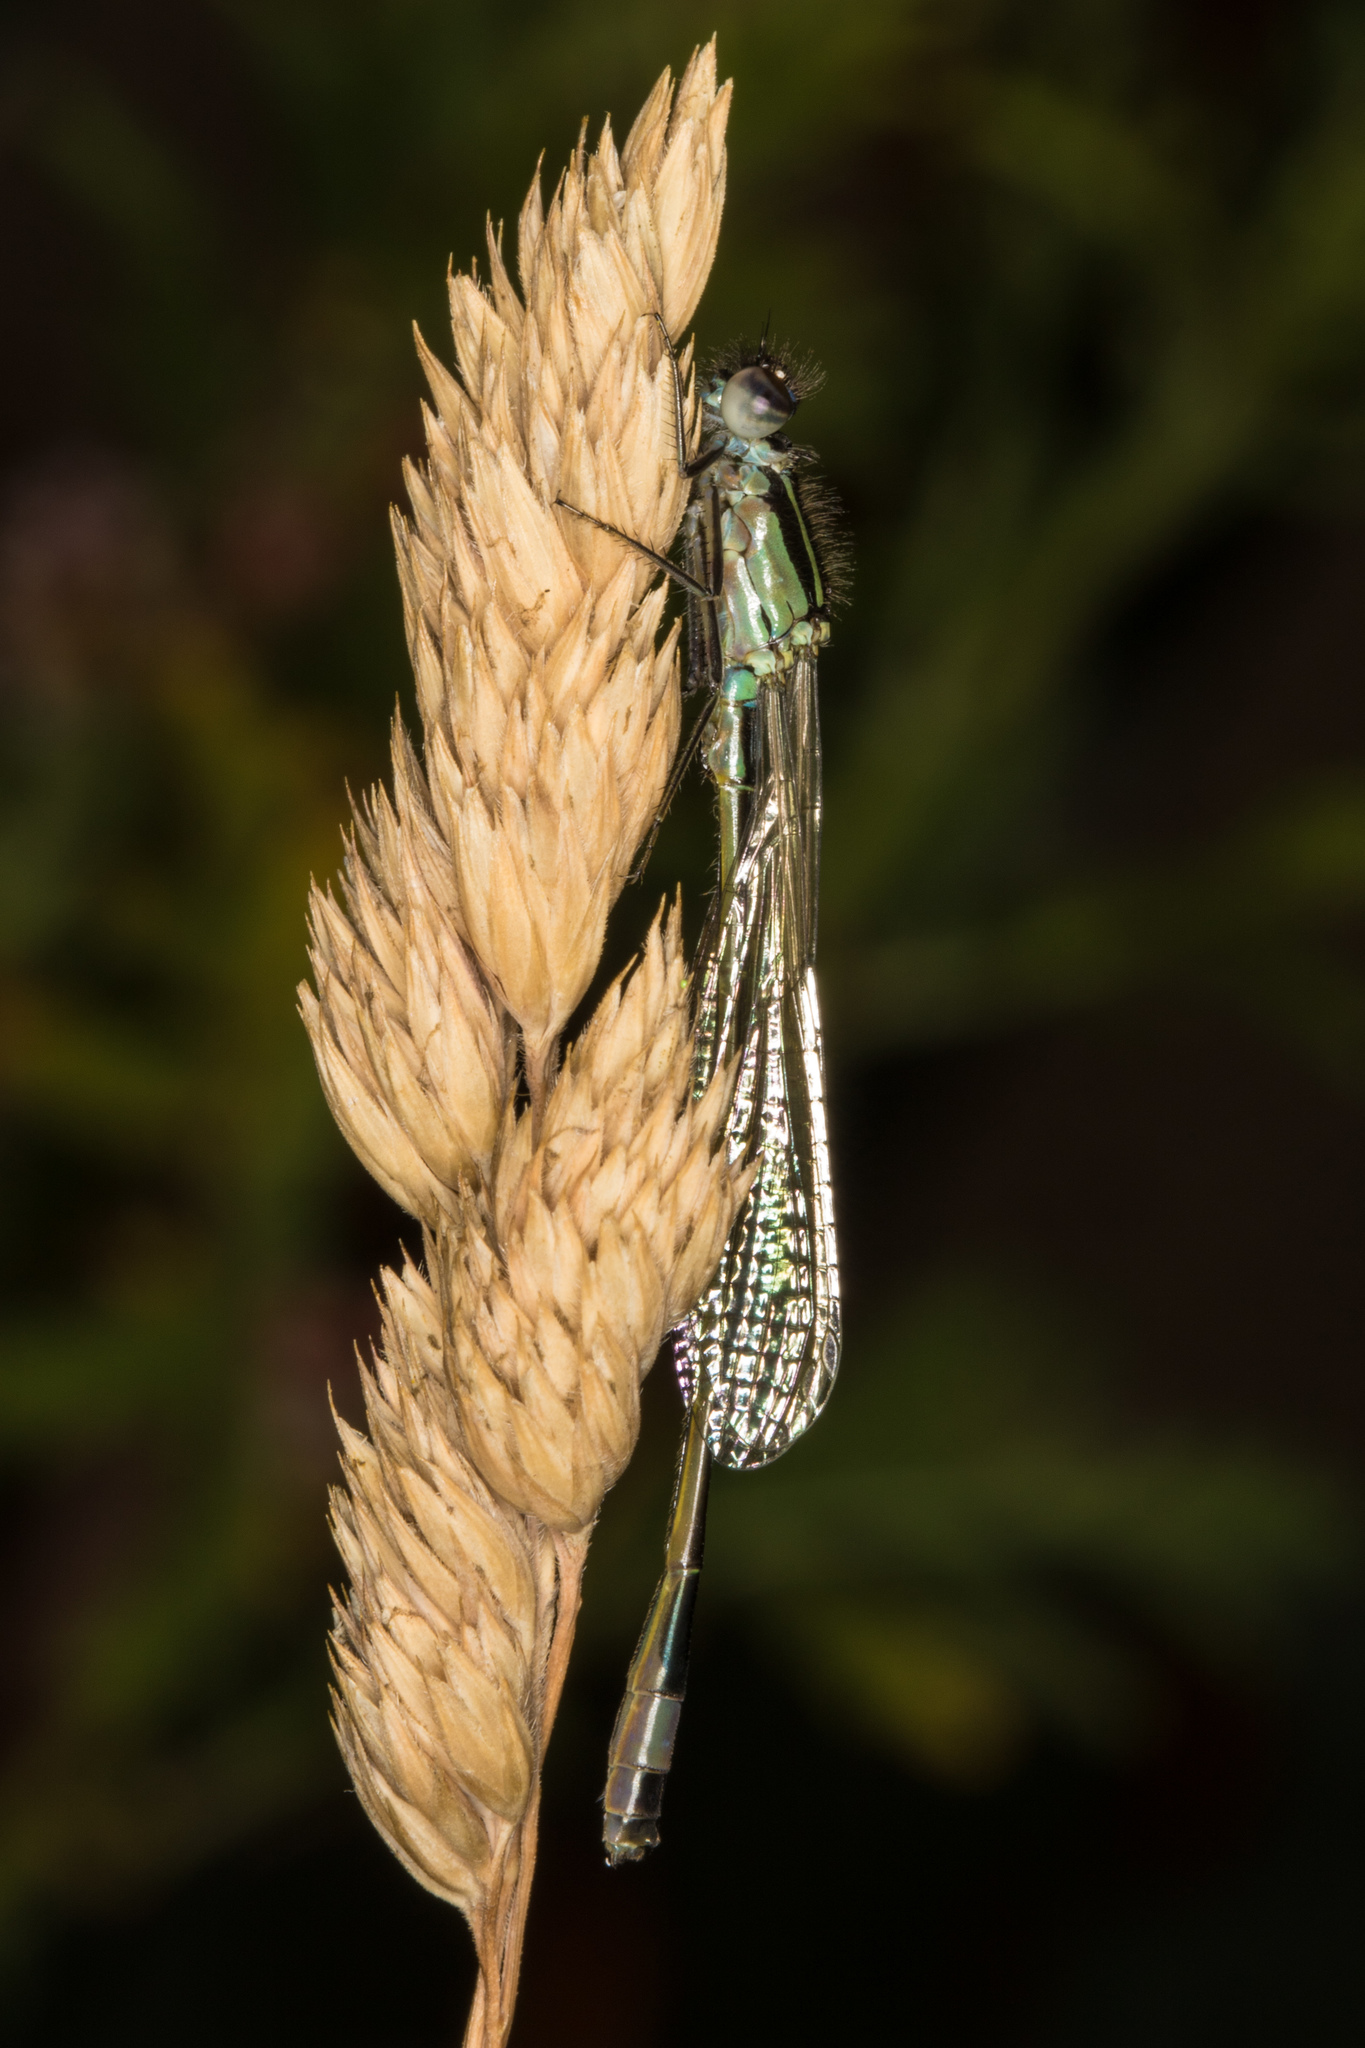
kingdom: Animalia
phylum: Arthropoda
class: Insecta
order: Odonata
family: Coenagrionidae
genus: Ischnura
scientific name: Ischnura elegans
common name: Blue-tailed damselfly
